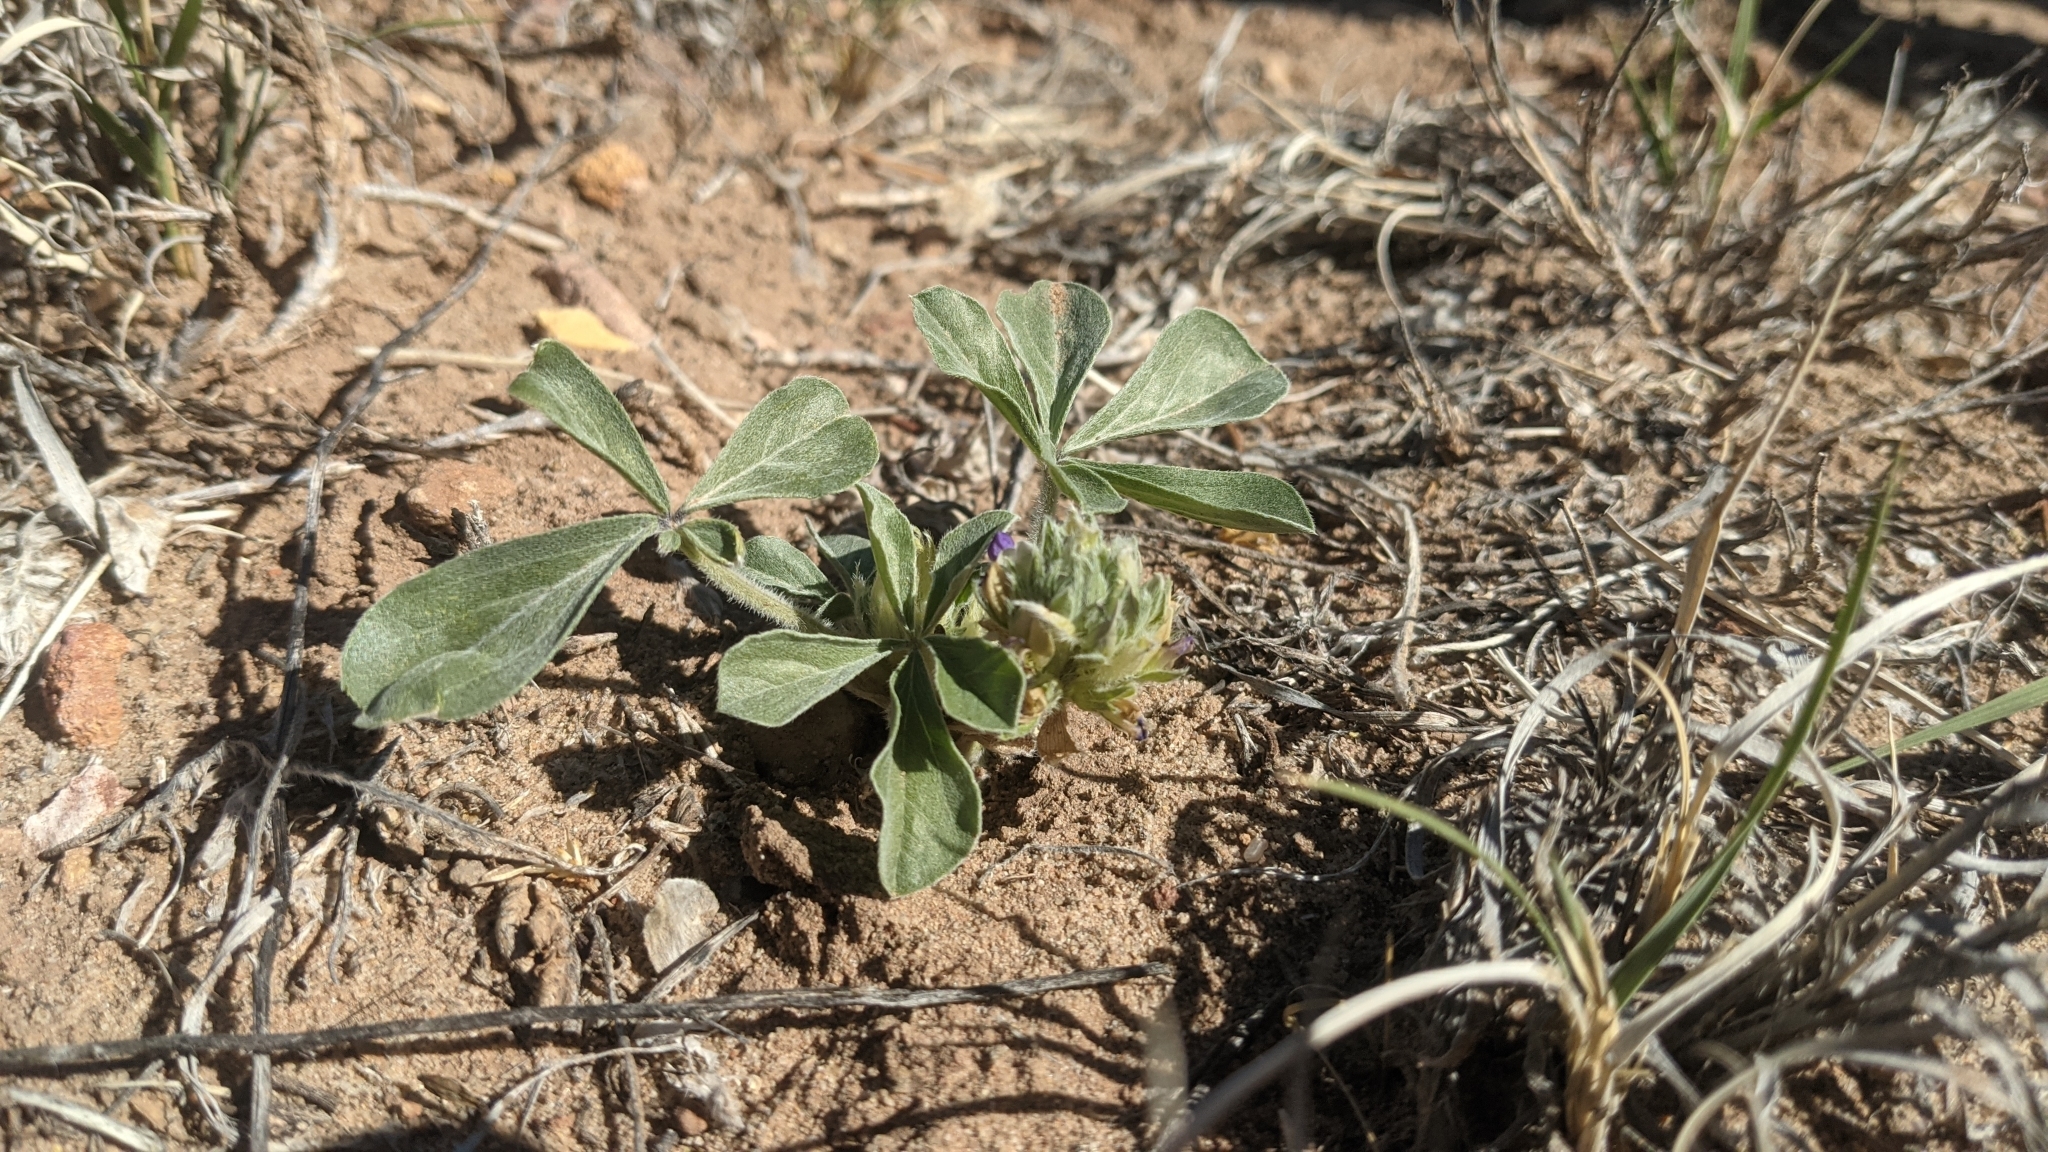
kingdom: Plantae
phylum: Tracheophyta
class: Magnoliopsida
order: Fabales
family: Fabaceae
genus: Pediomelum
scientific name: Pediomelum mephiticum
